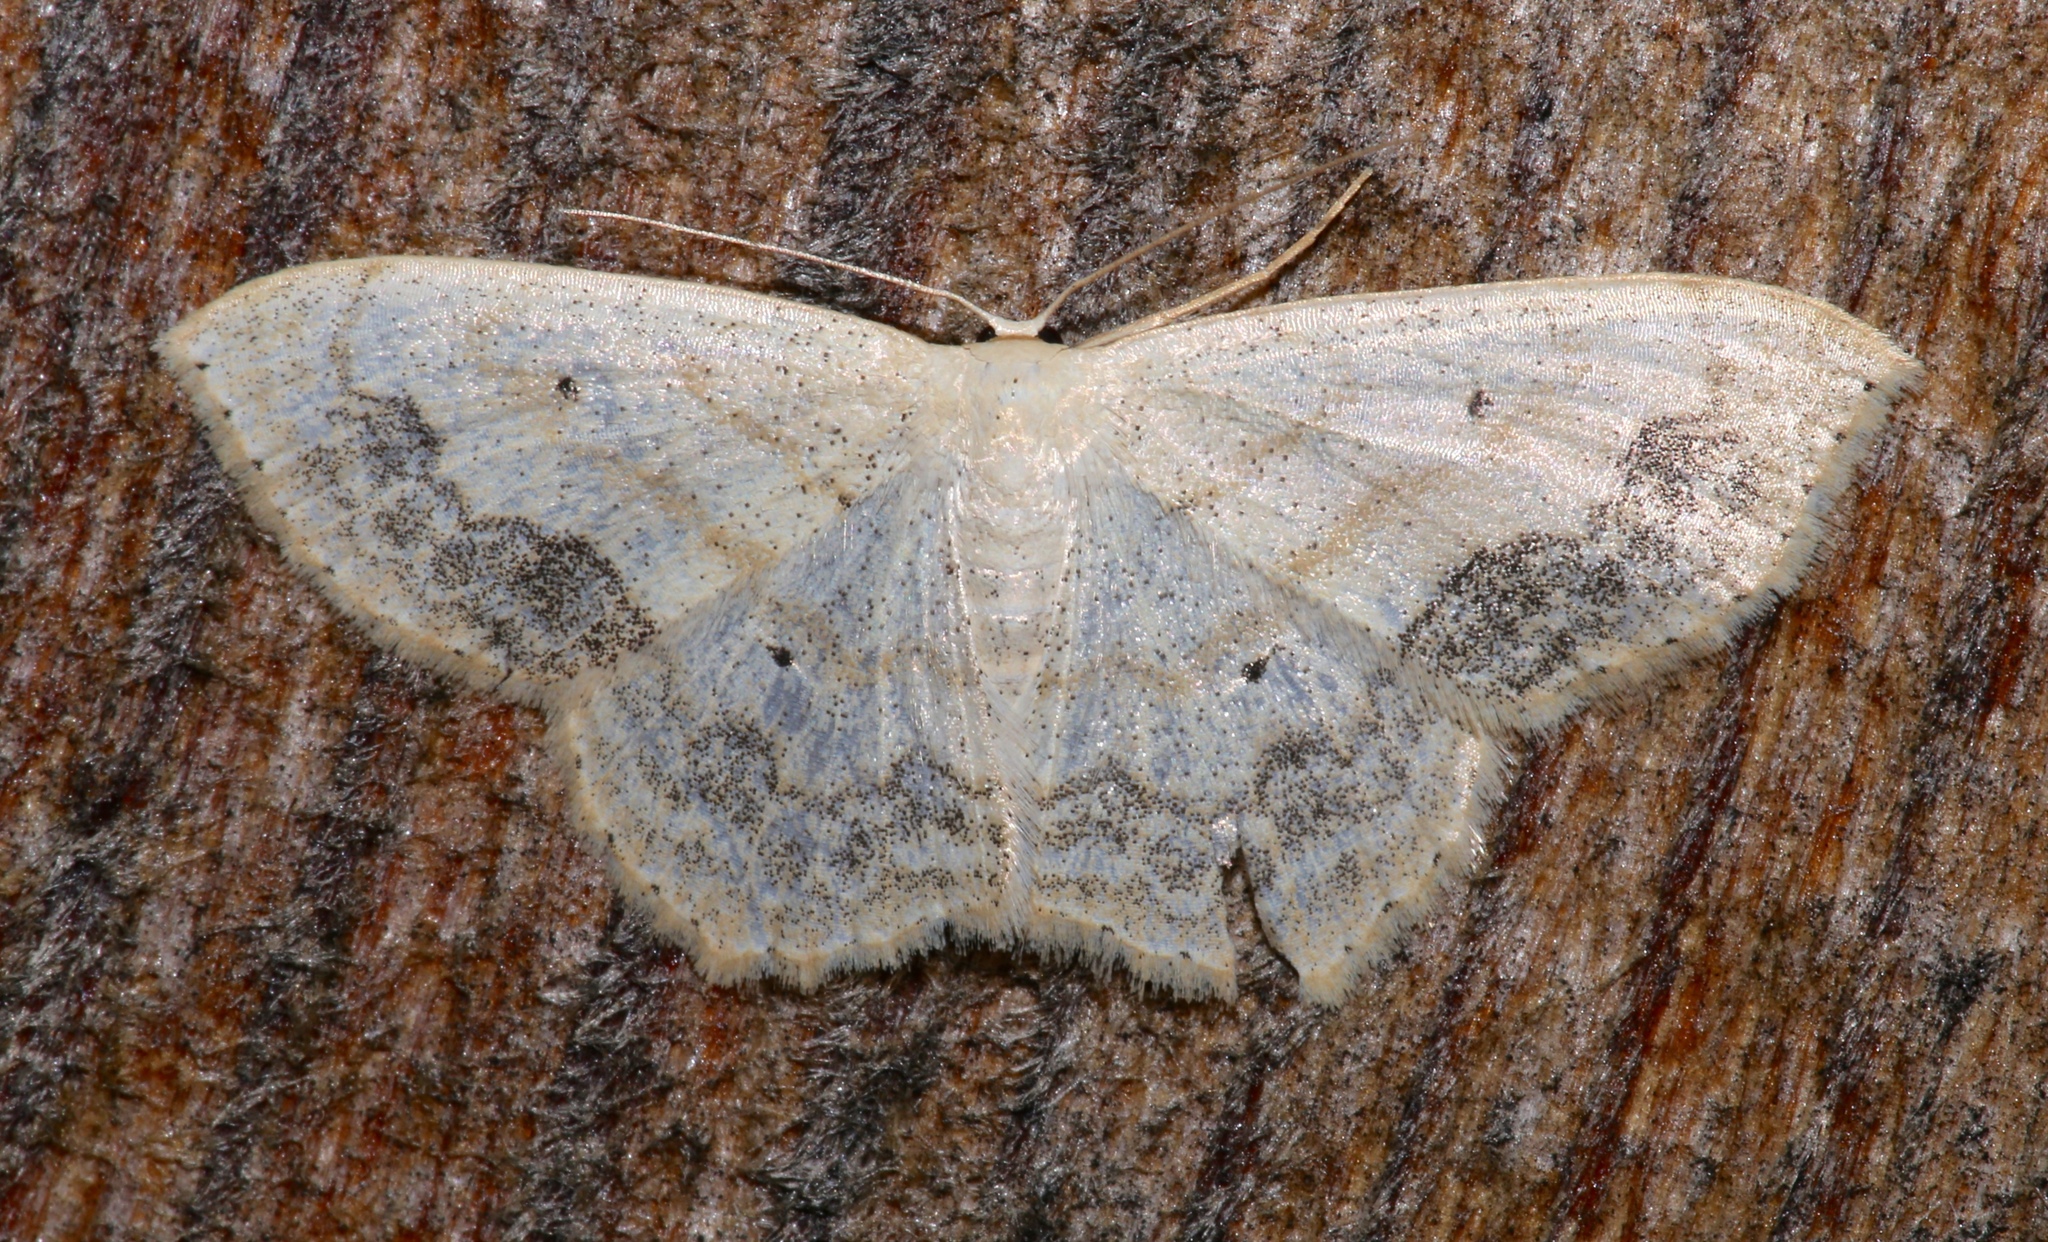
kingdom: Animalia
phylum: Arthropoda
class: Insecta
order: Lepidoptera
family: Geometridae
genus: Scopula
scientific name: Scopula limboundata
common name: Large lace border
